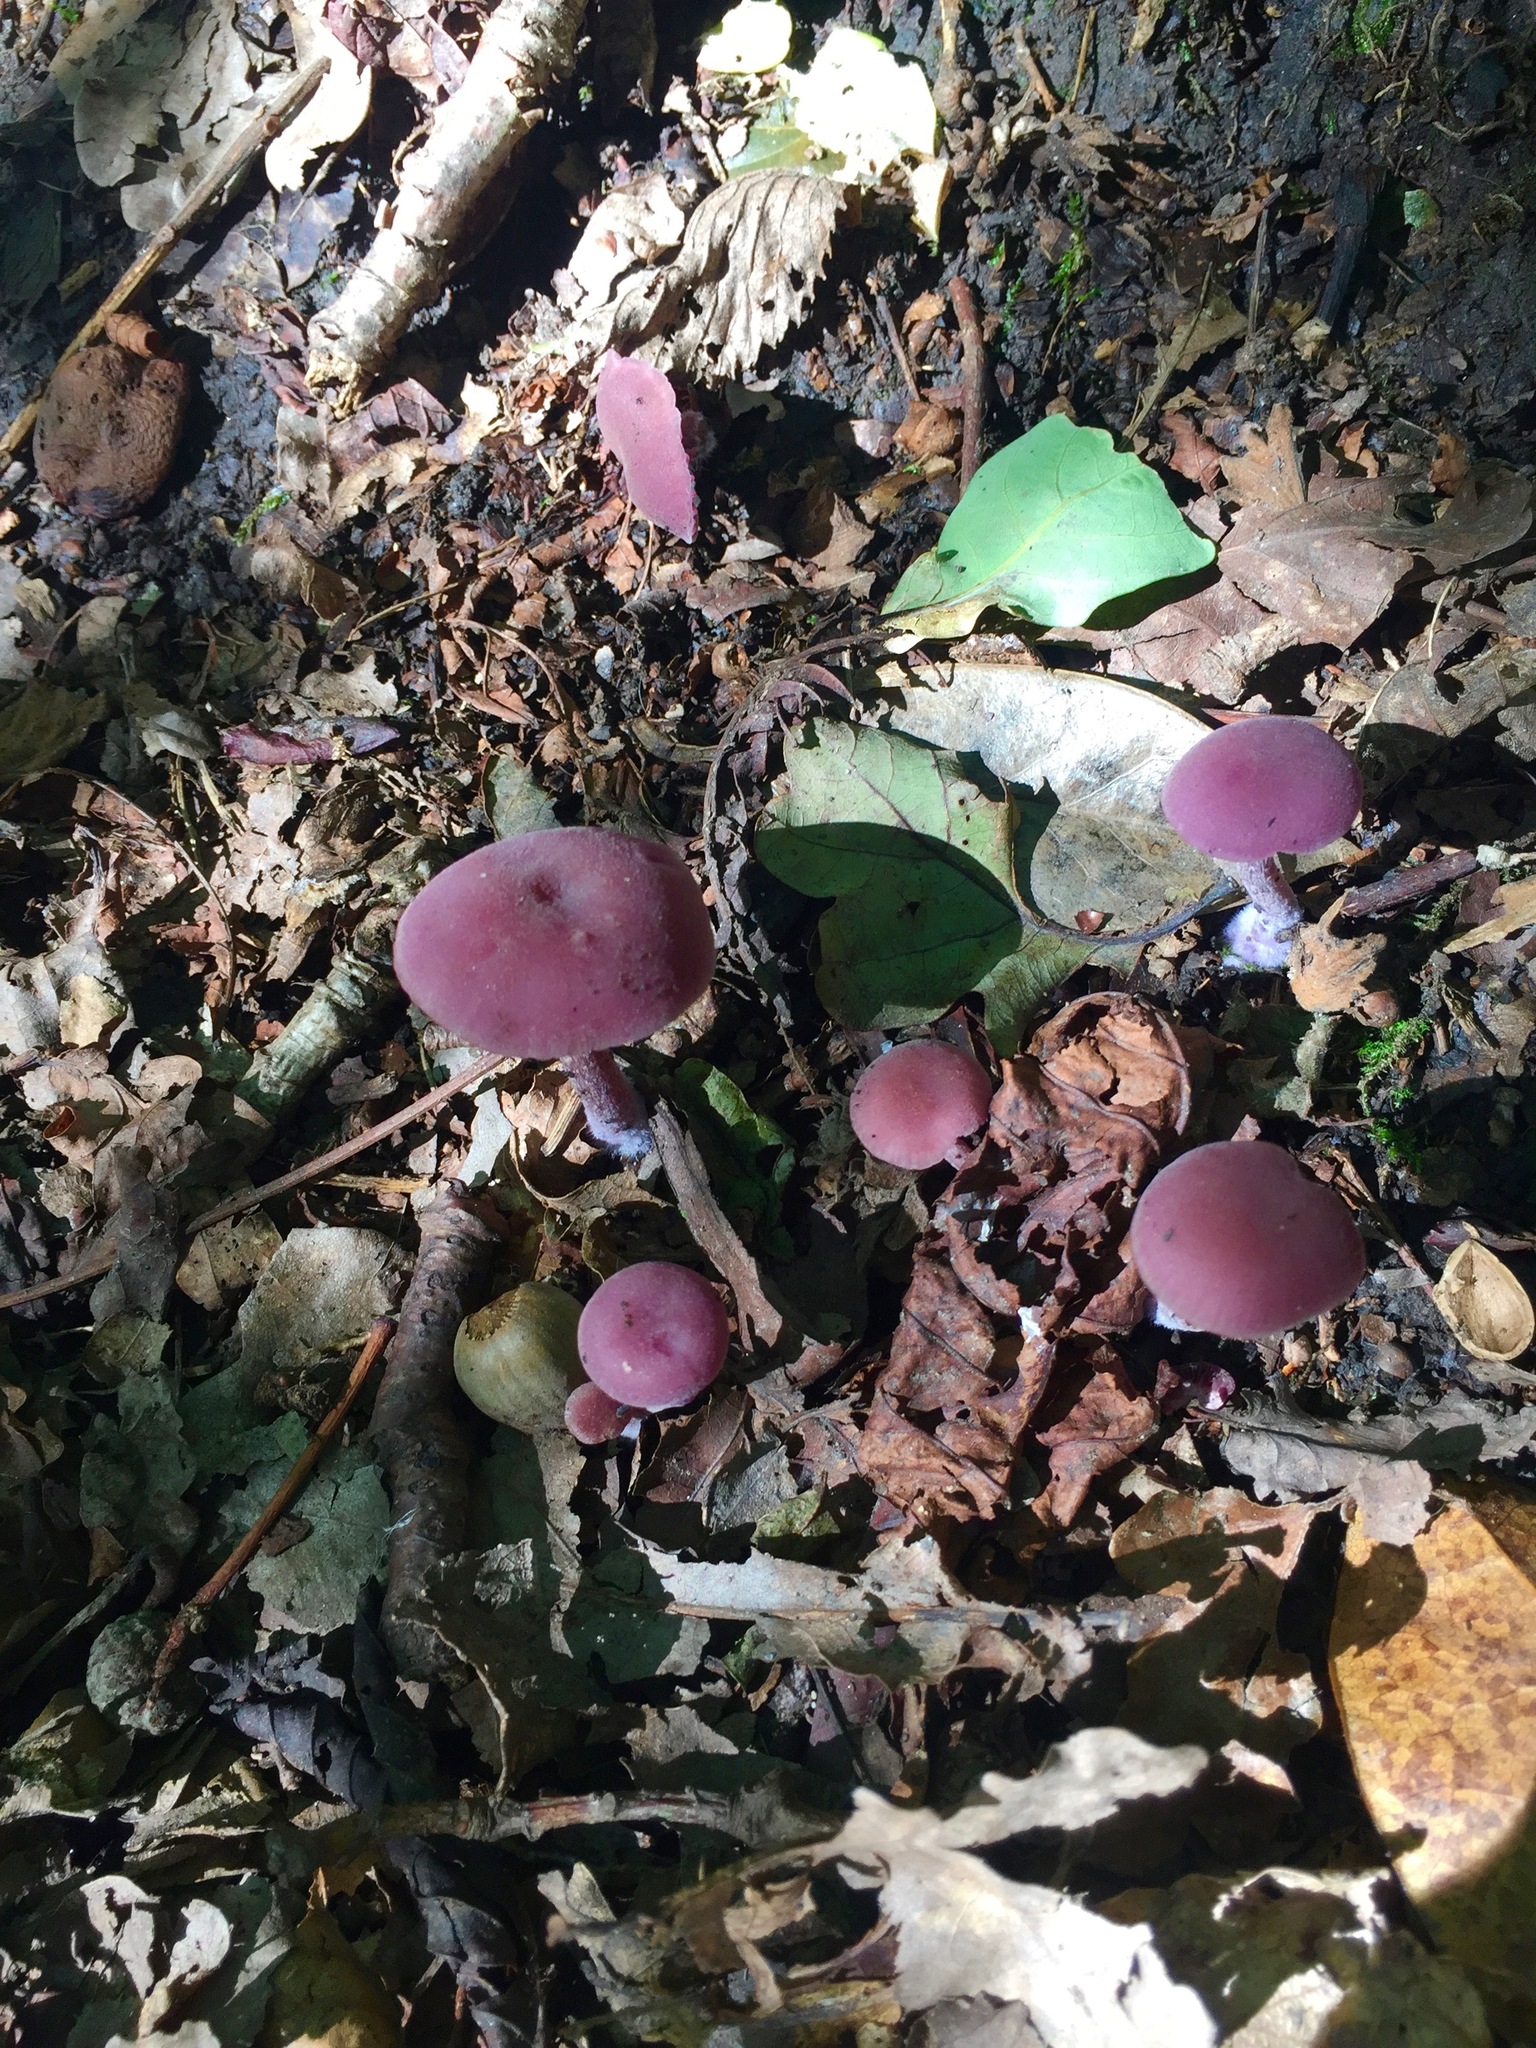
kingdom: Fungi
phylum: Basidiomycota
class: Agaricomycetes
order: Agaricales
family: Hydnangiaceae
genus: Laccaria
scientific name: Laccaria amethystina
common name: Amethyst deceiver
